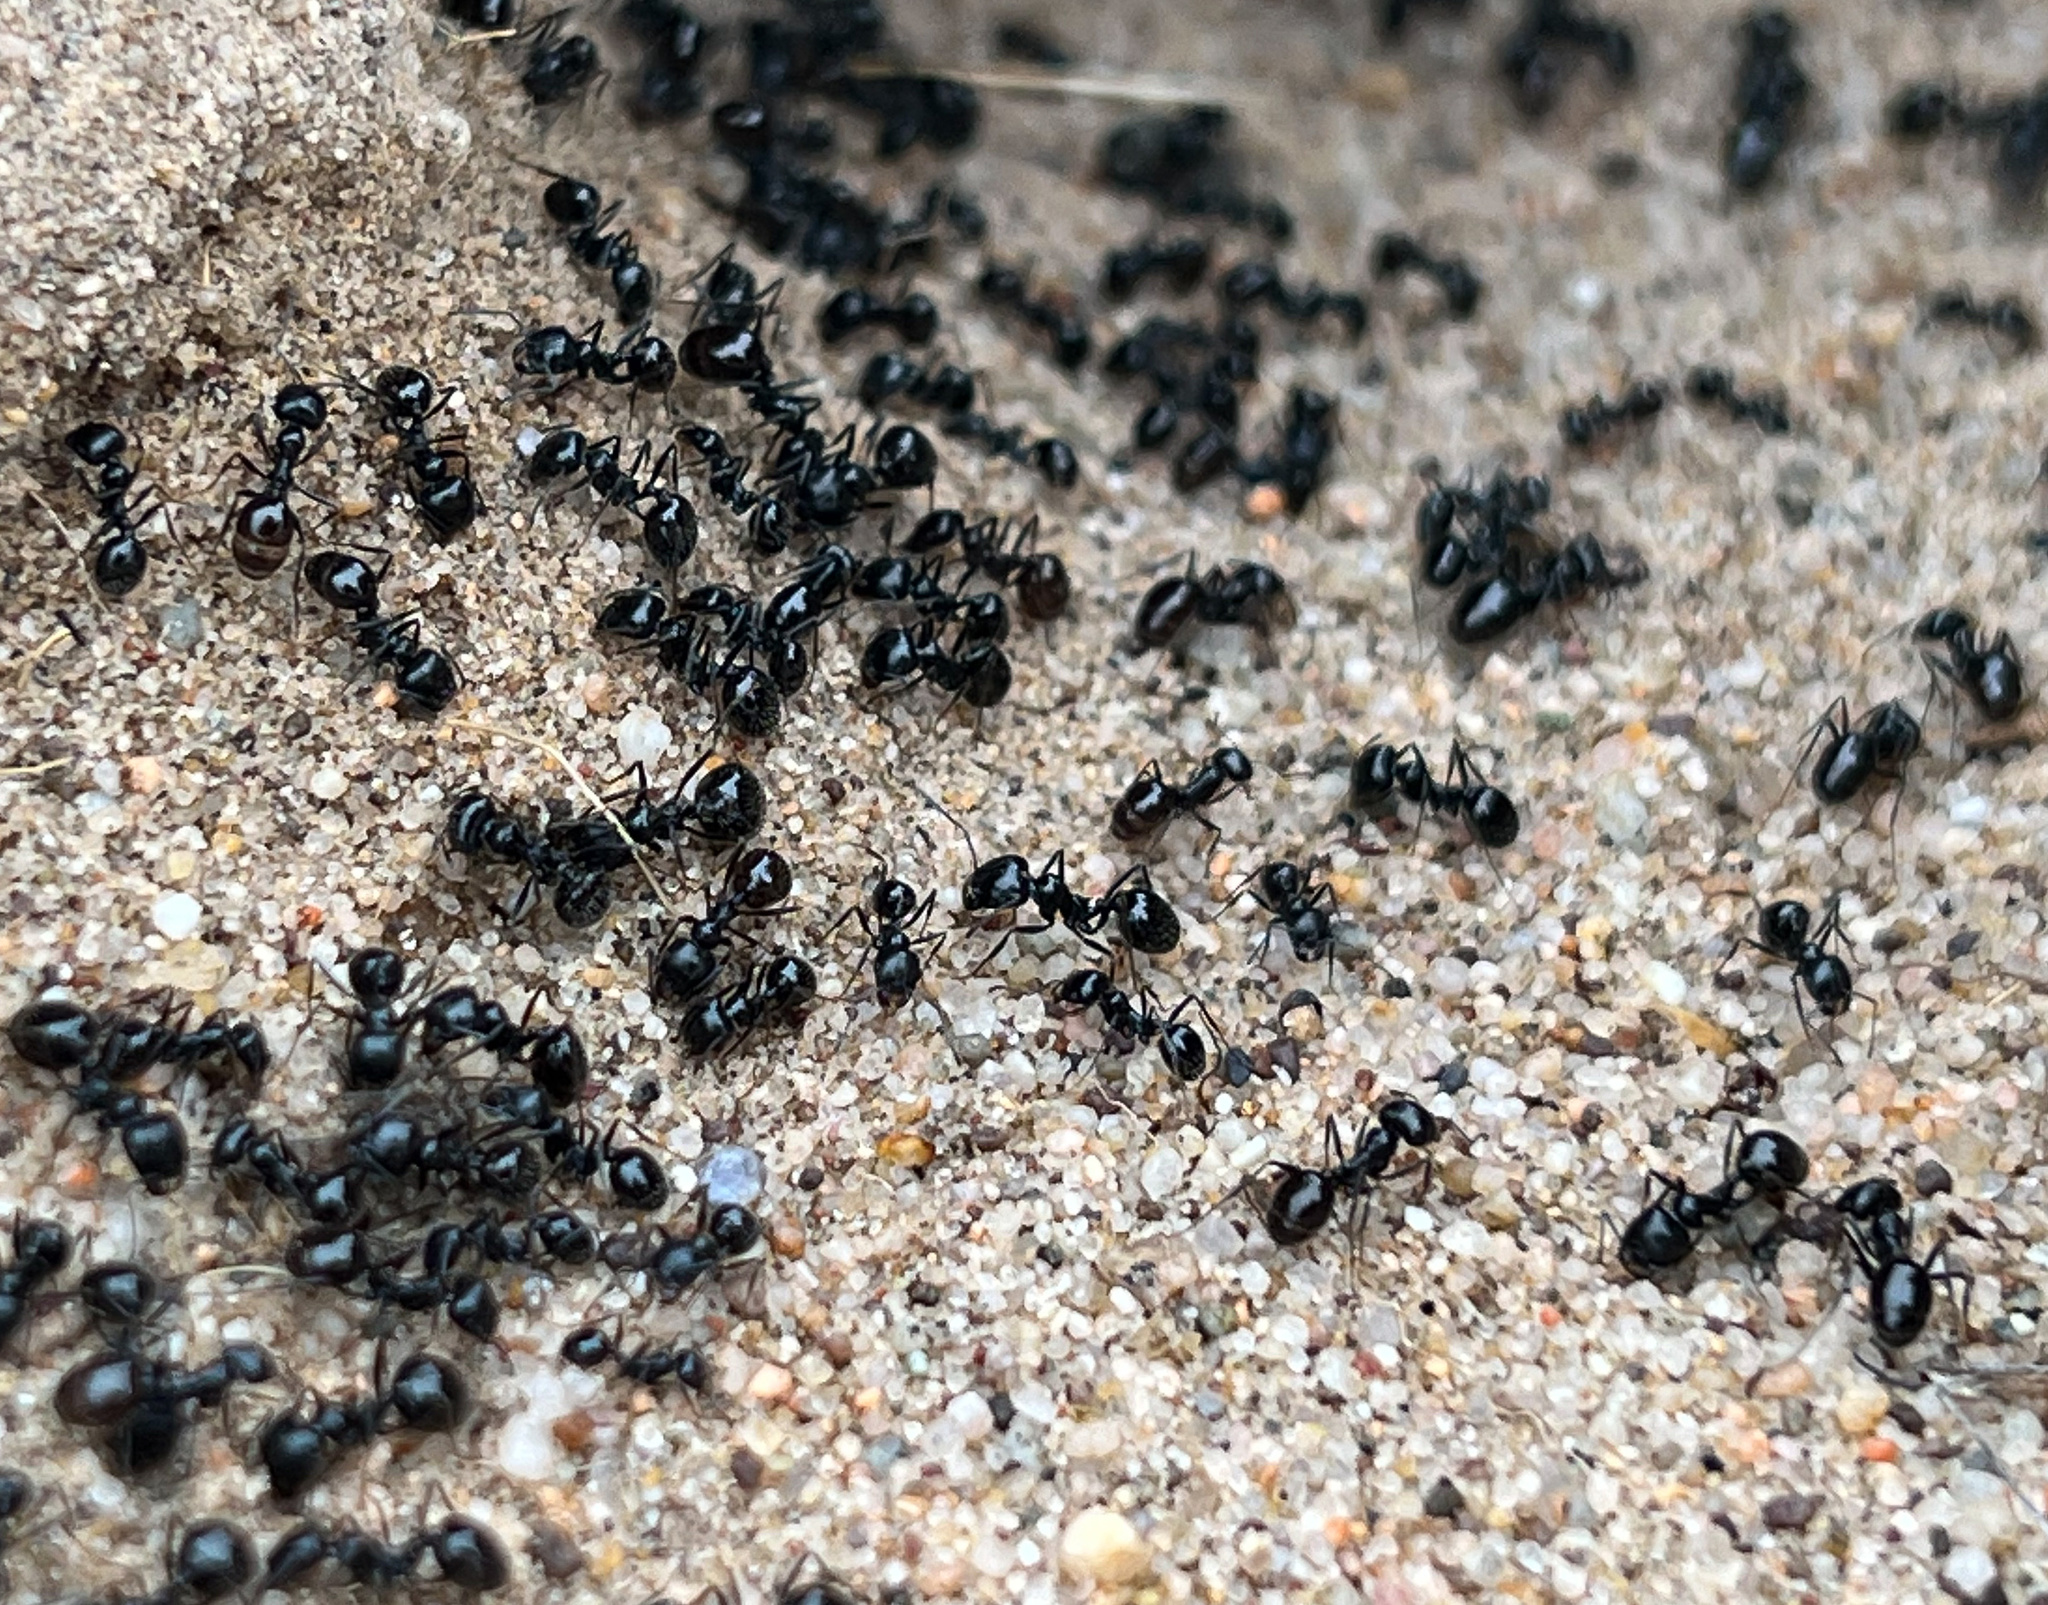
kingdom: Animalia
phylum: Arthropoda
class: Insecta
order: Hymenoptera
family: Formicidae
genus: Messor
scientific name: Messor pergandei
